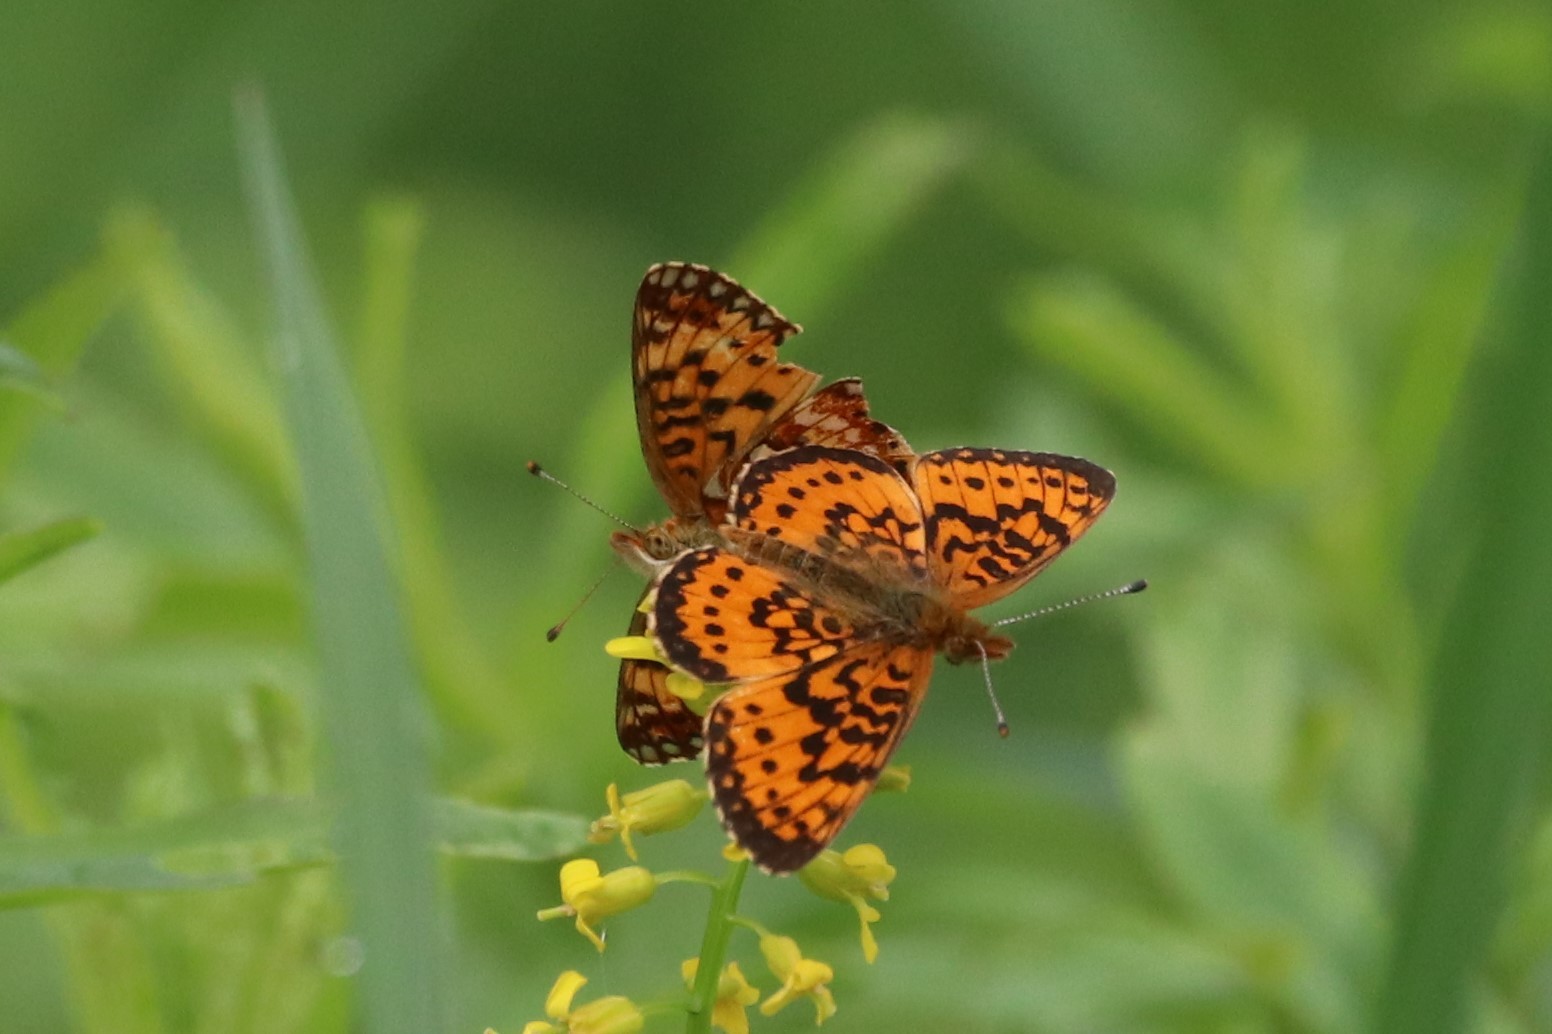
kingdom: Animalia
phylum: Arthropoda
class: Insecta
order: Lepidoptera
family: Nymphalidae
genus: Boloria
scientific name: Boloria
